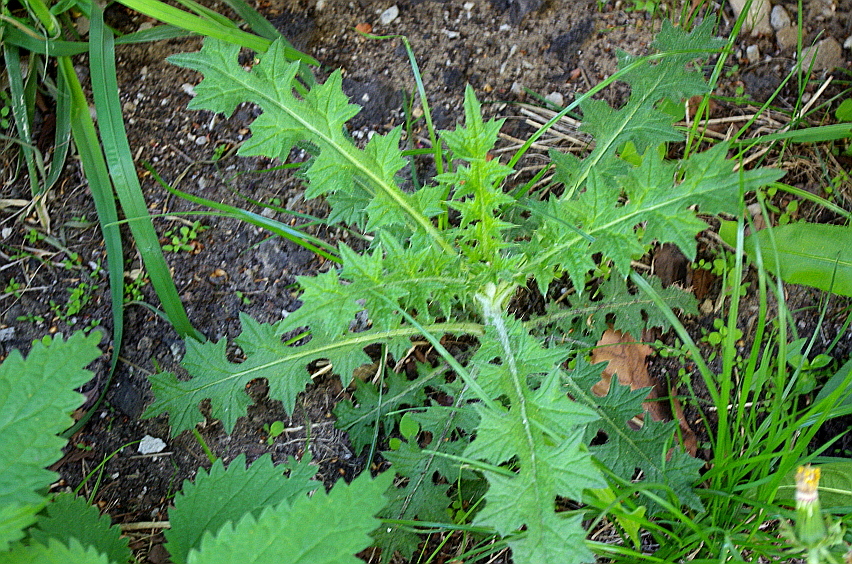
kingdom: Plantae
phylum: Tracheophyta
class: Magnoliopsida
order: Asterales
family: Asteraceae
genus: Cirsium
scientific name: Cirsium vulgare
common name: Bull thistle
